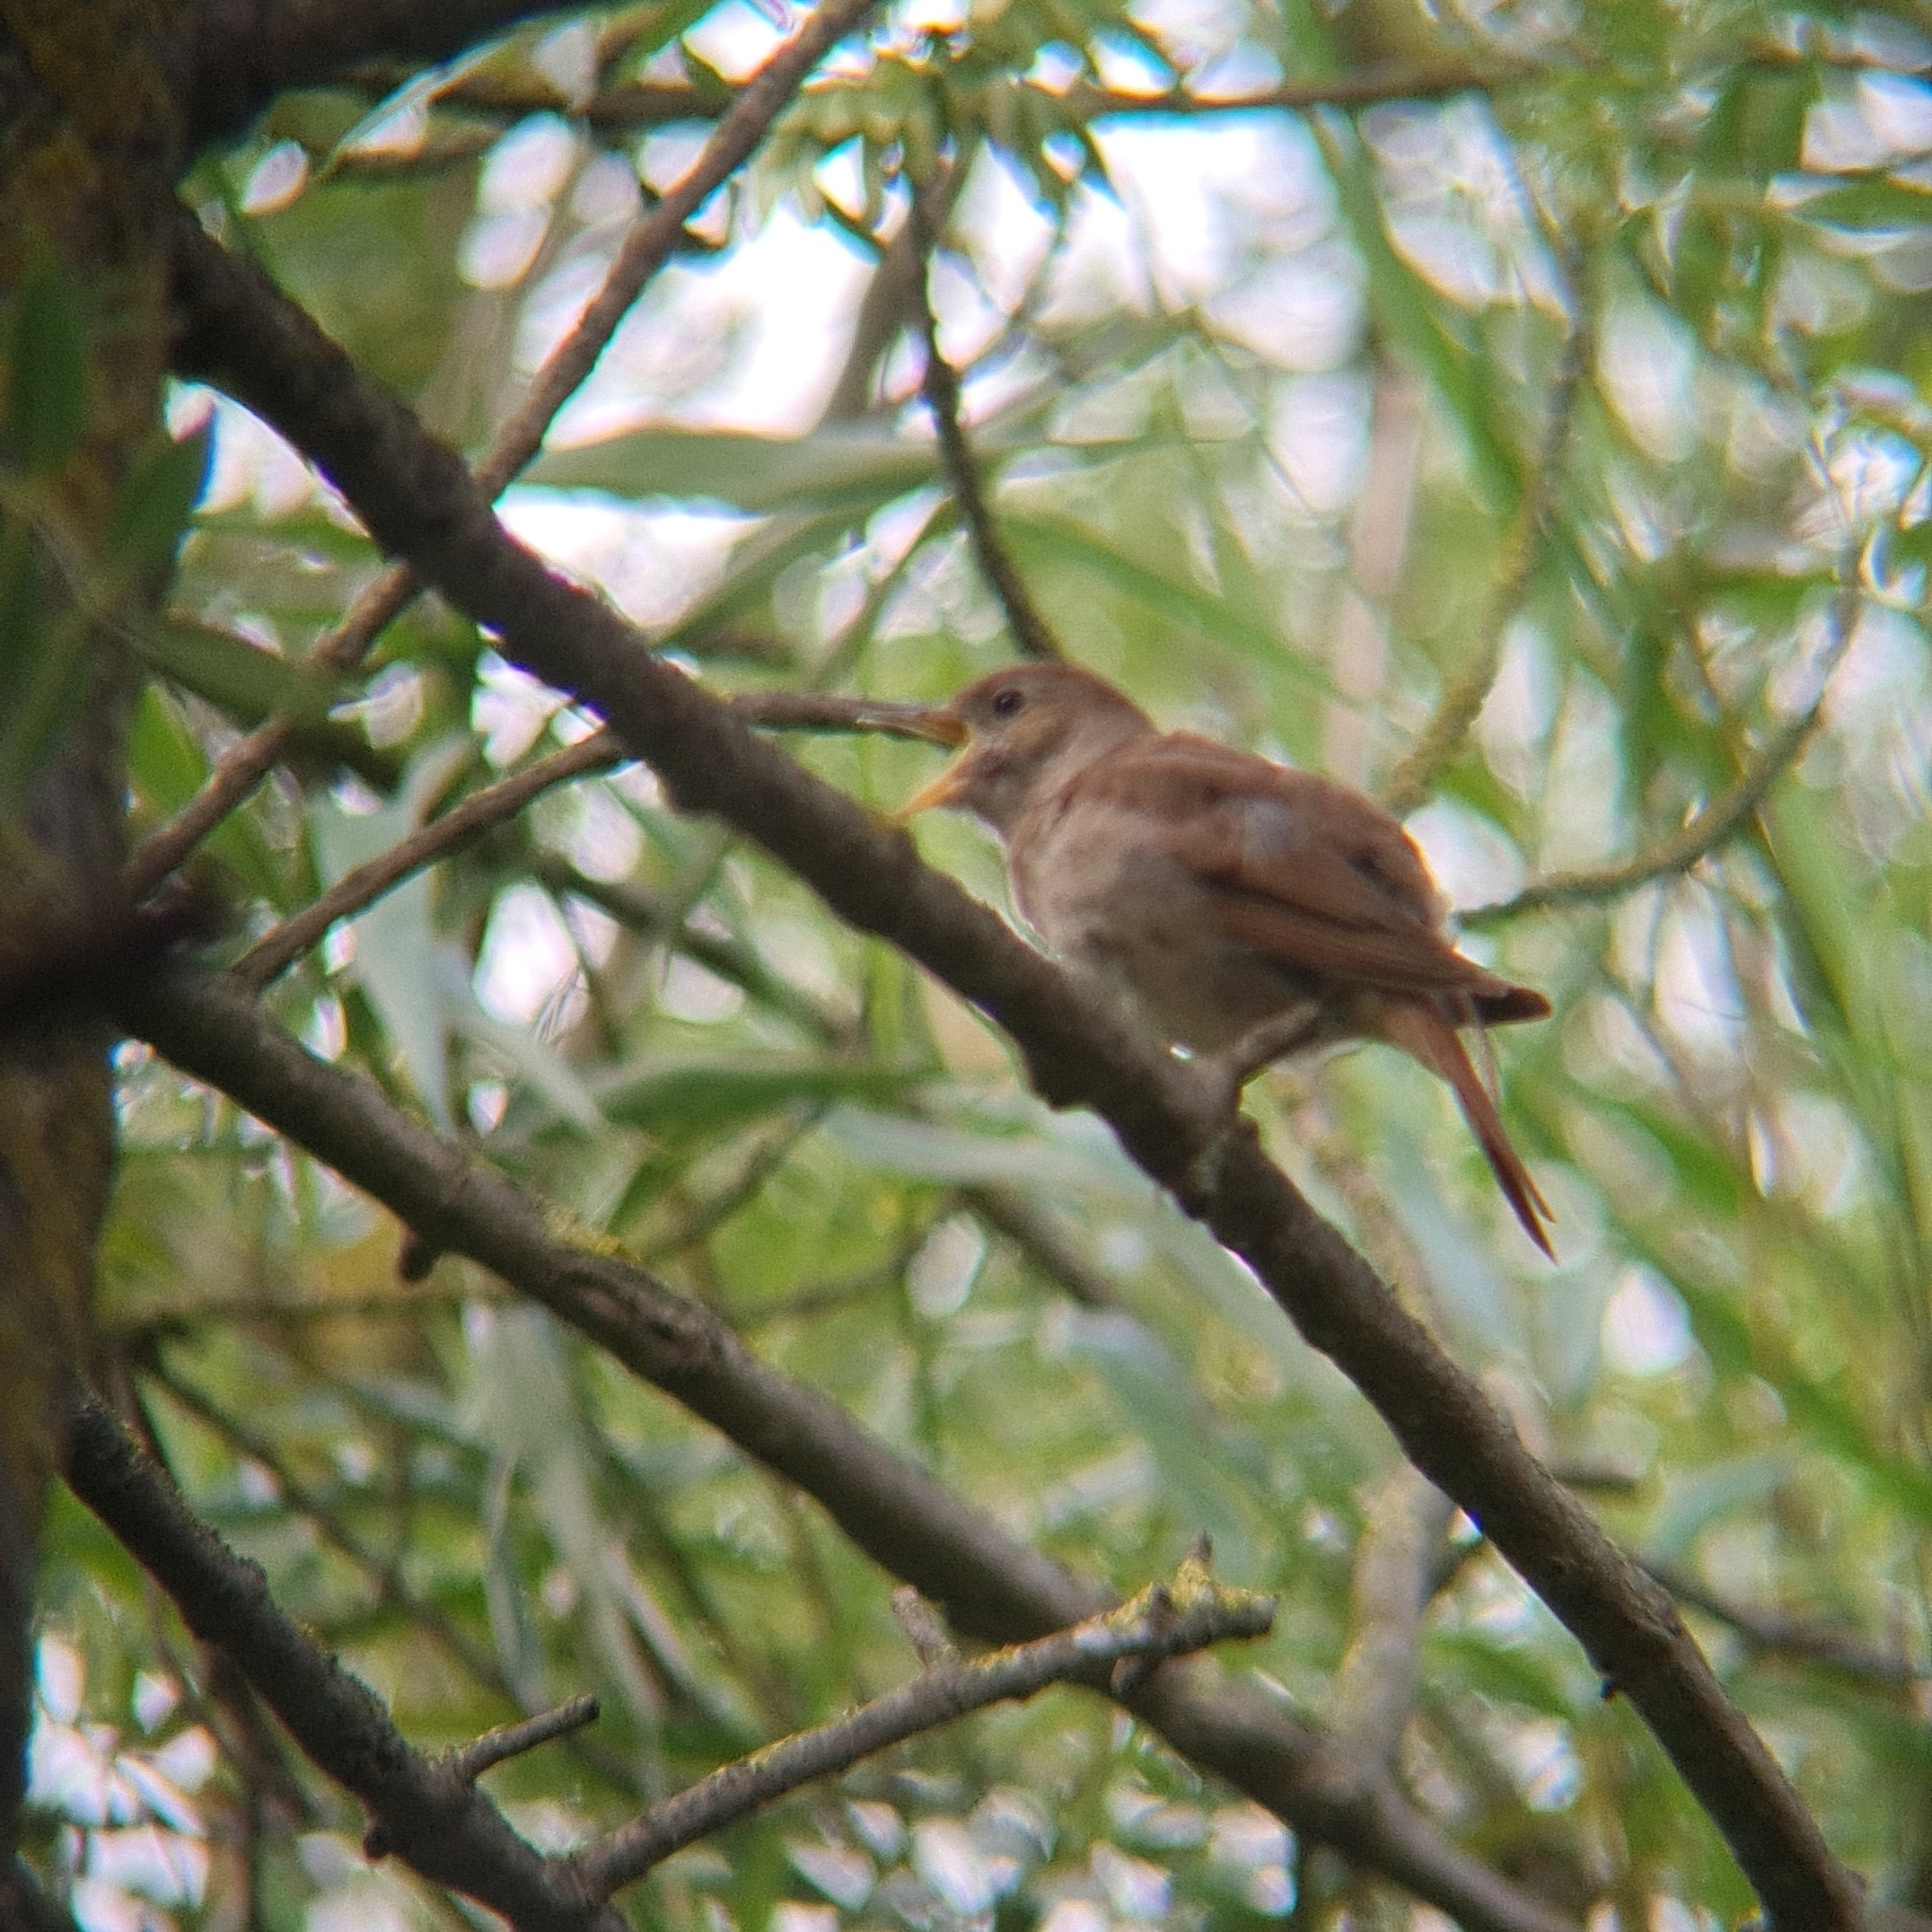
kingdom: Animalia
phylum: Chordata
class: Aves
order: Passeriformes
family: Muscicapidae
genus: Luscinia
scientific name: Luscinia megarhynchos
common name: Common nightingale
